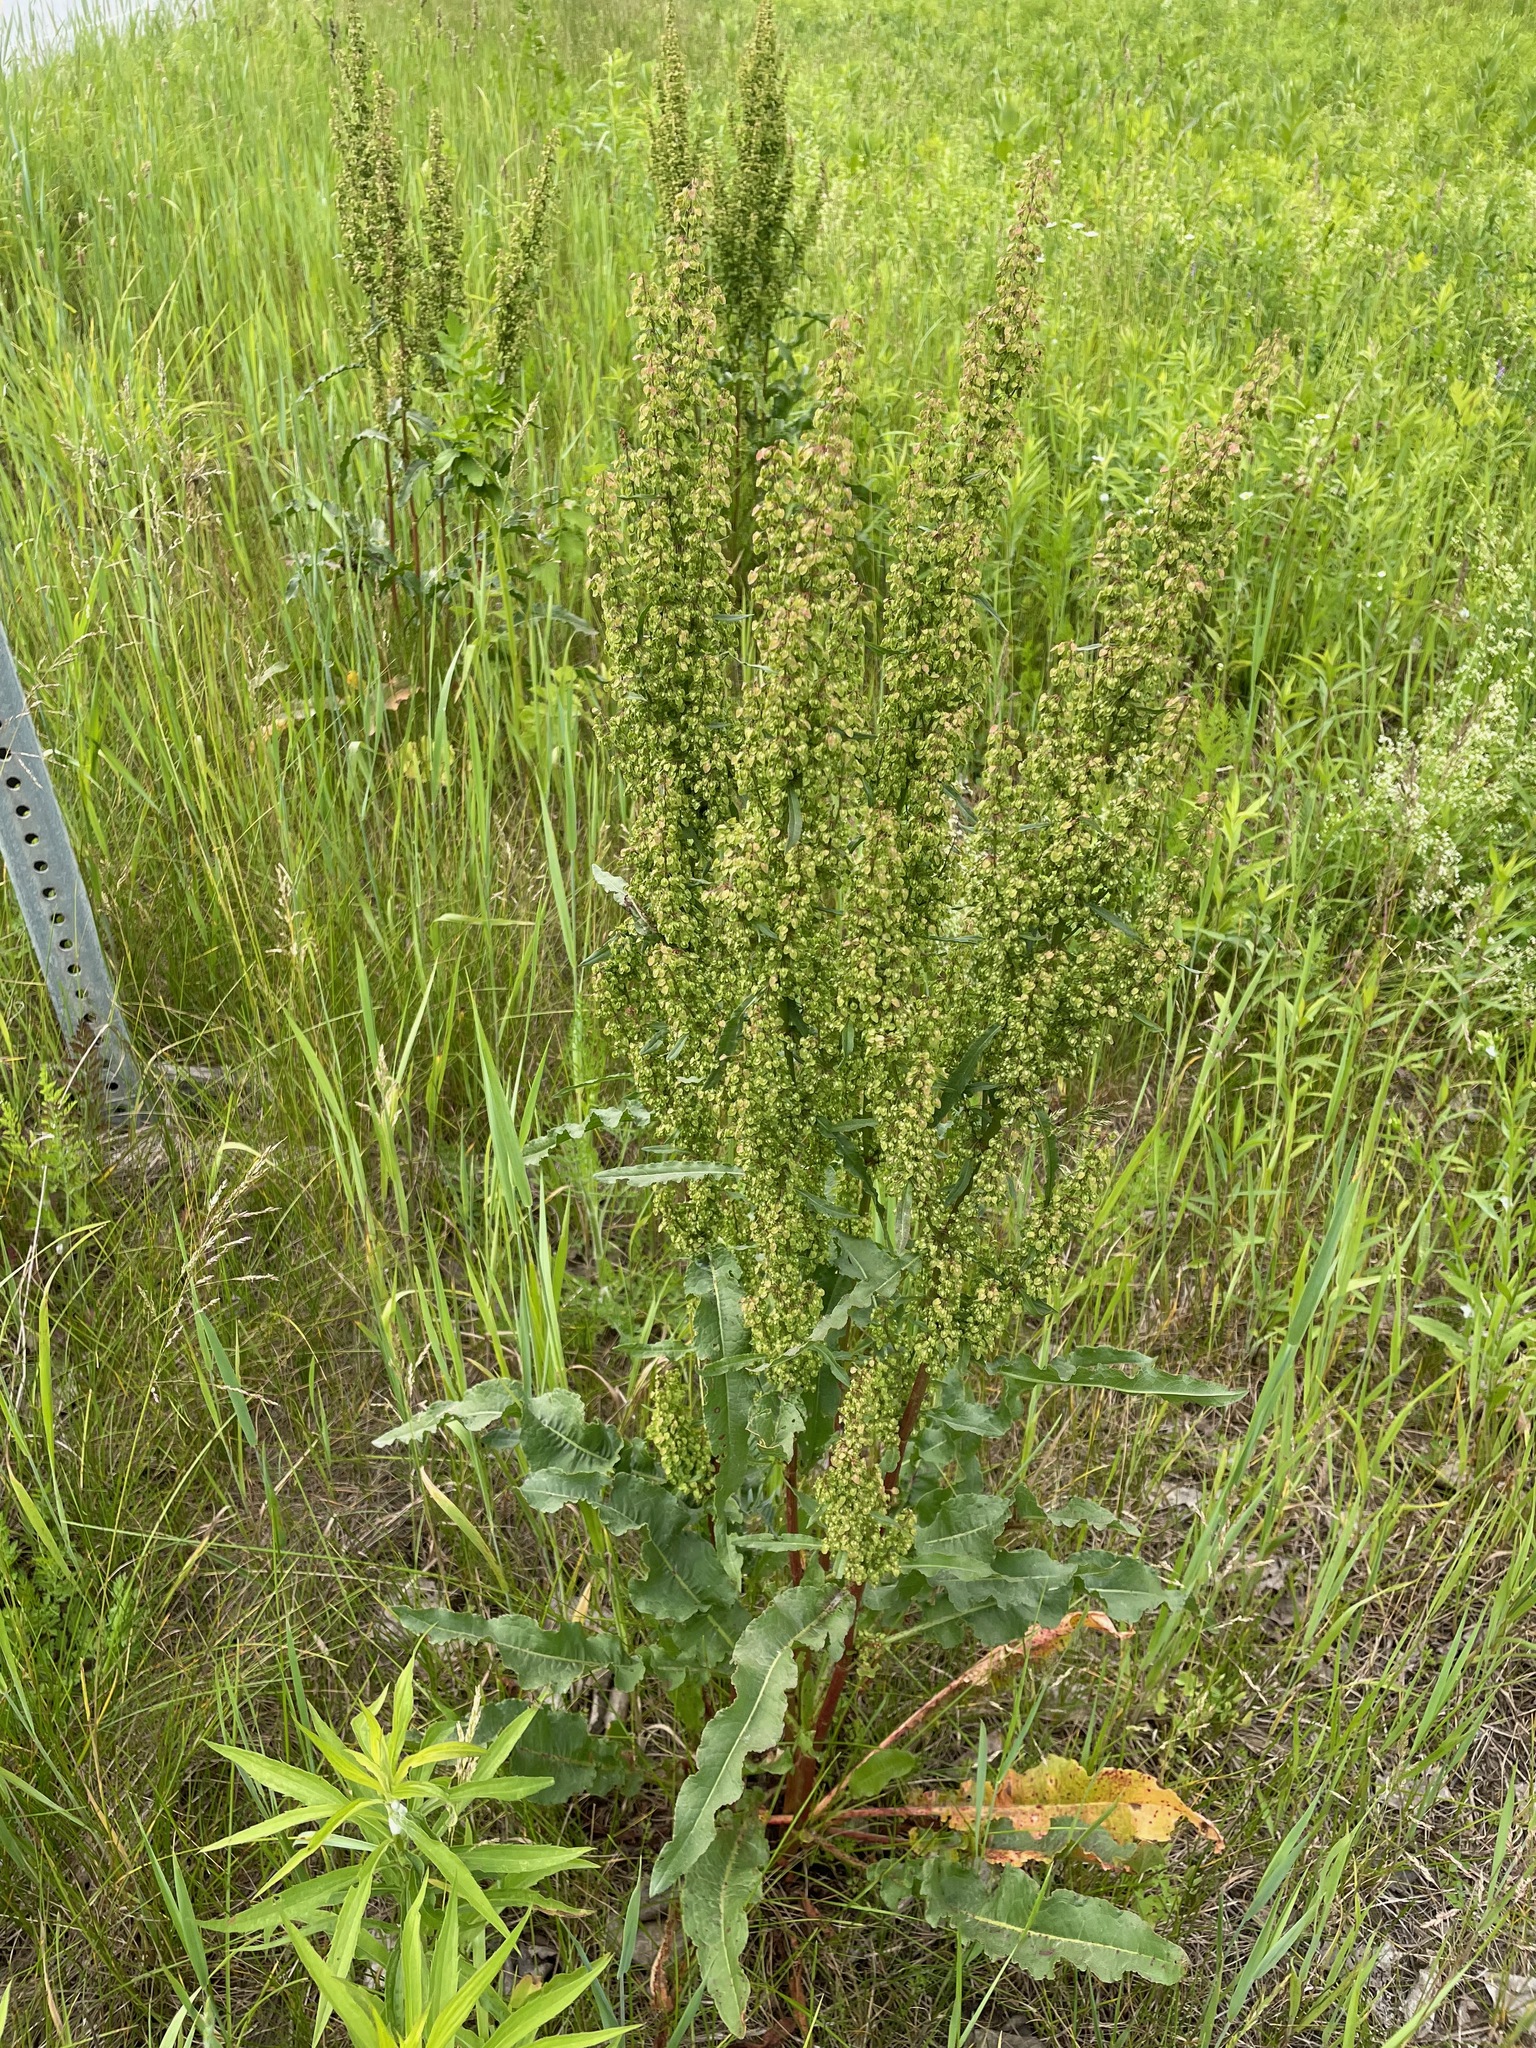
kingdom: Plantae
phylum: Tracheophyta
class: Magnoliopsida
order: Caryophyllales
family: Polygonaceae
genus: Rumex
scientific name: Rumex crispus
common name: Curled dock
